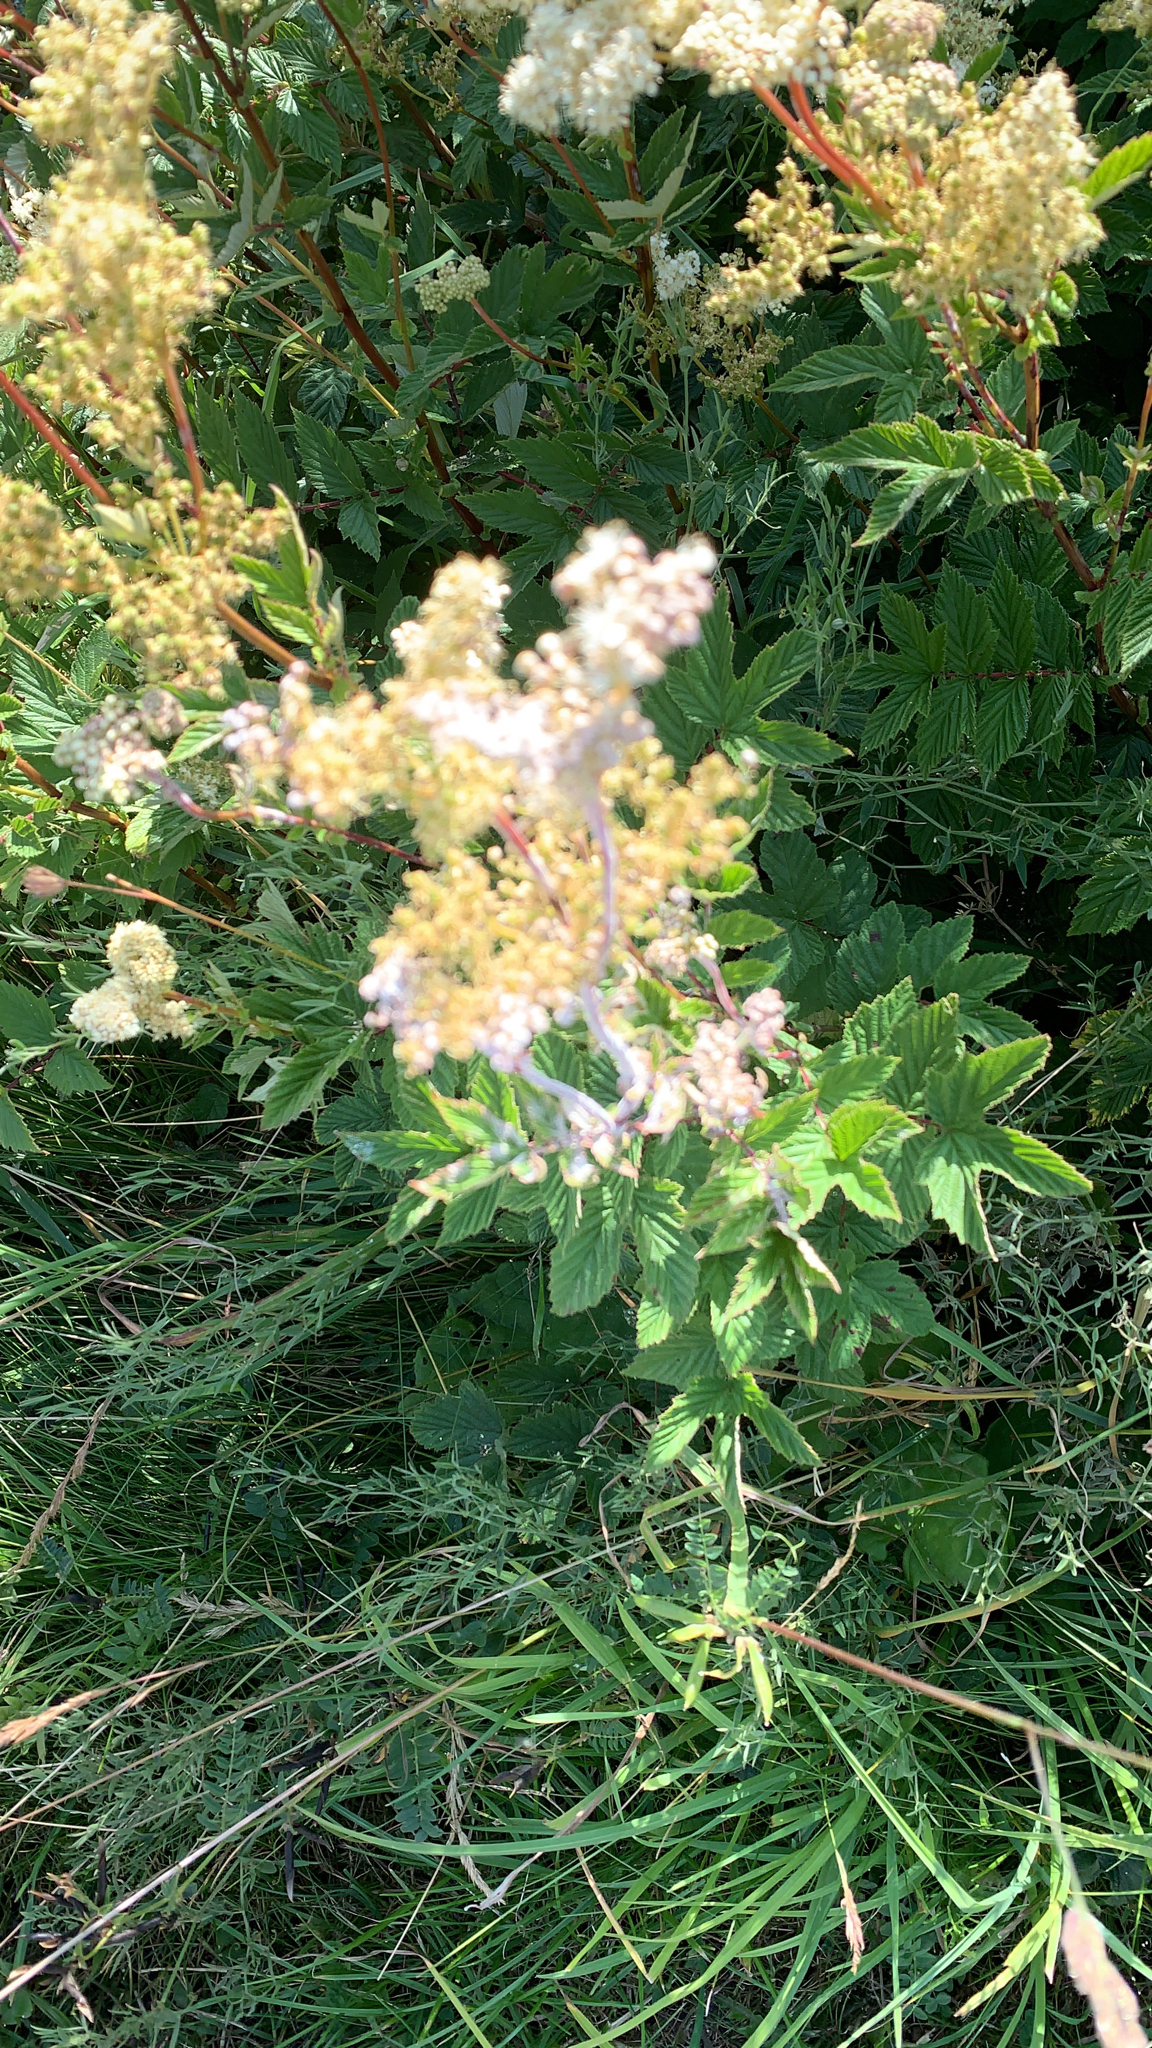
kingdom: Plantae
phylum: Tracheophyta
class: Magnoliopsida
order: Rosales
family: Rosaceae
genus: Filipendula
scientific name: Filipendula ulmaria
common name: Meadowsweet
